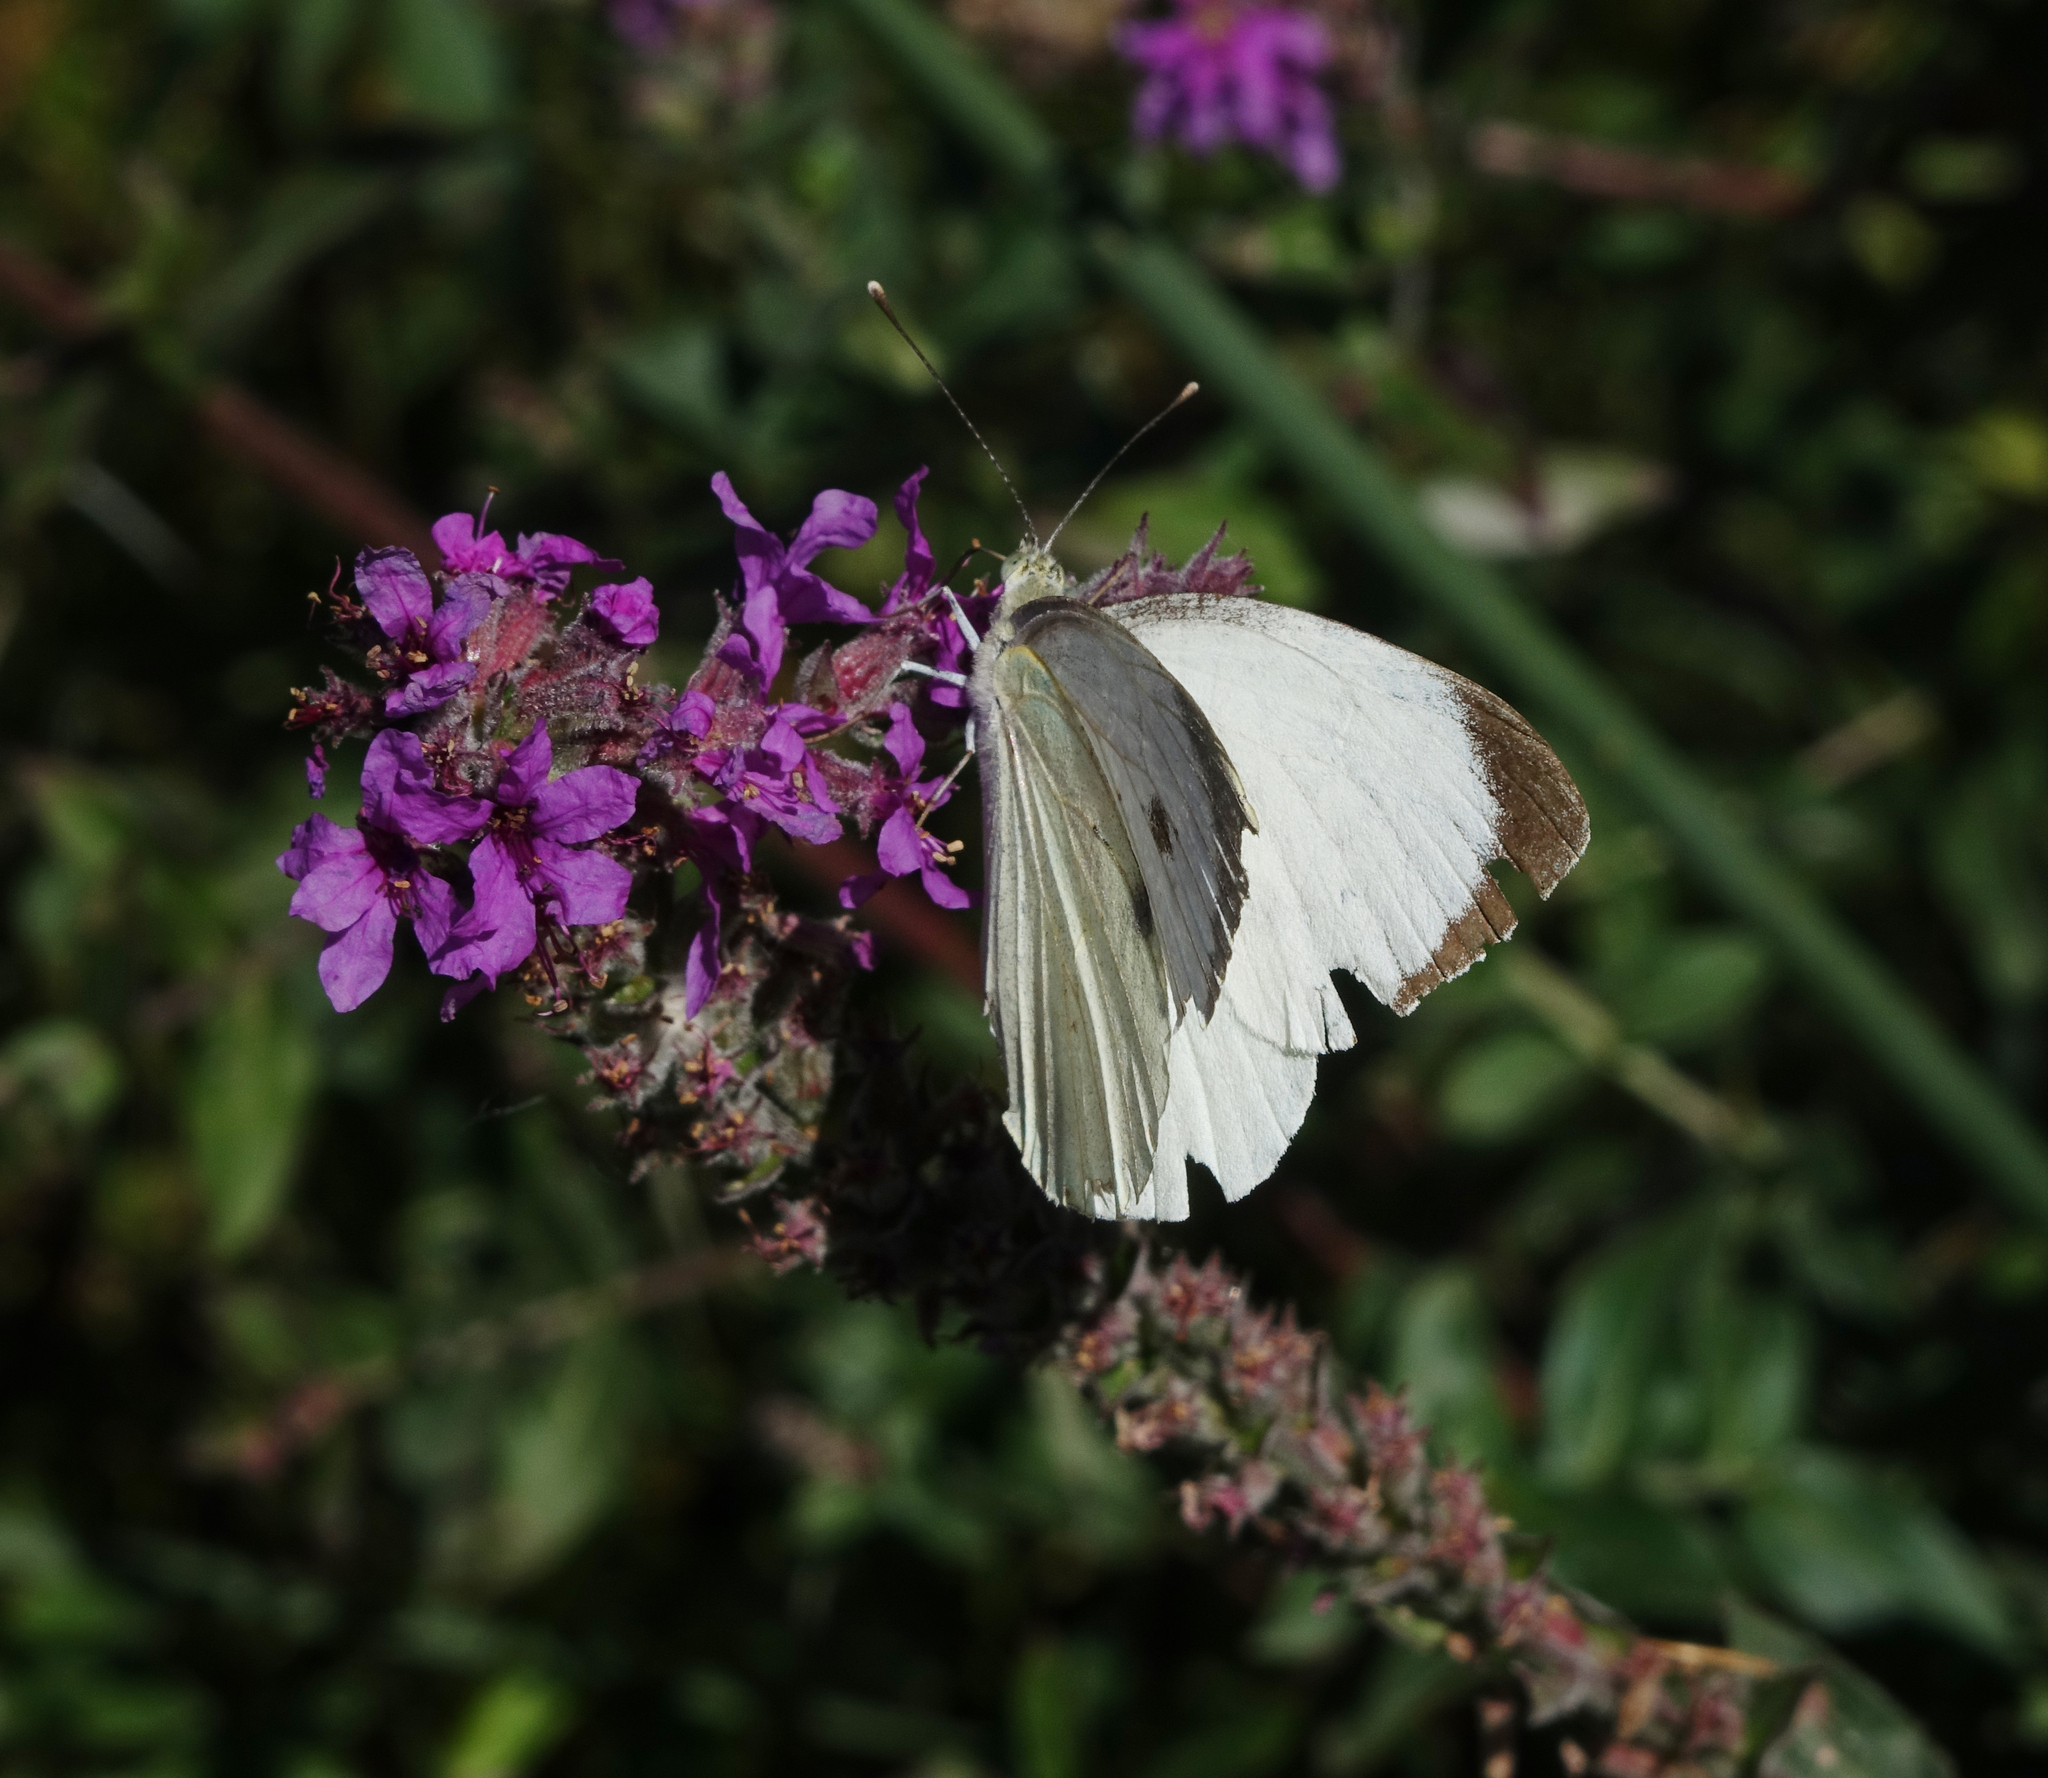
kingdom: Plantae
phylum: Tracheophyta
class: Magnoliopsida
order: Myrtales
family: Lythraceae
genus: Lythrum
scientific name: Lythrum salicaria
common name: Purple loosestrife
